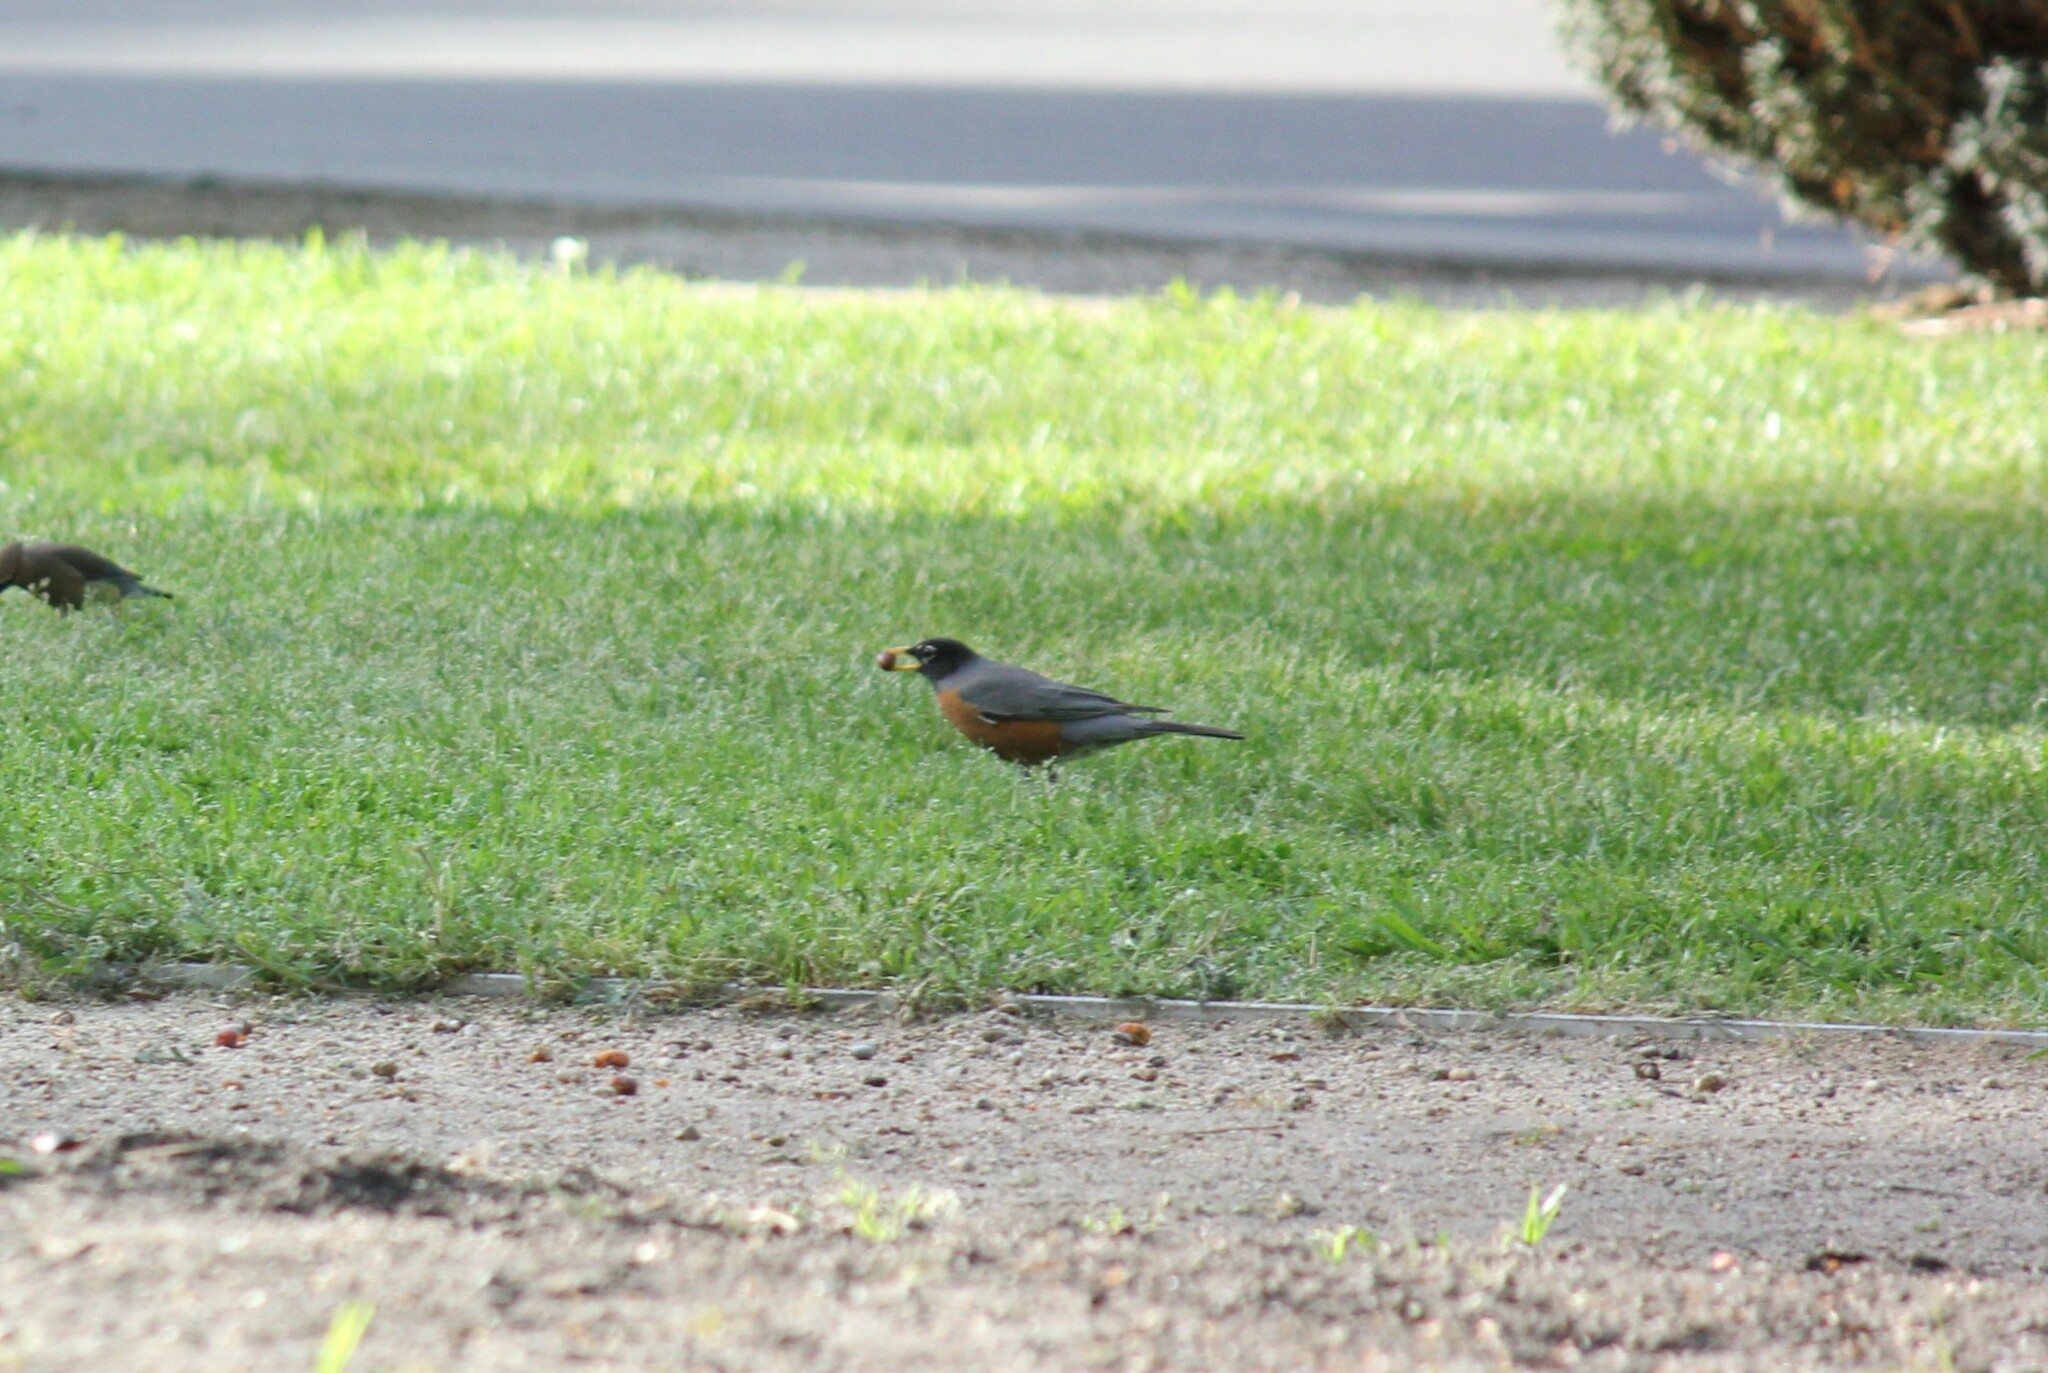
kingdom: Animalia
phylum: Chordata
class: Aves
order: Passeriformes
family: Turdidae
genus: Turdus
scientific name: Turdus migratorius
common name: American robin
